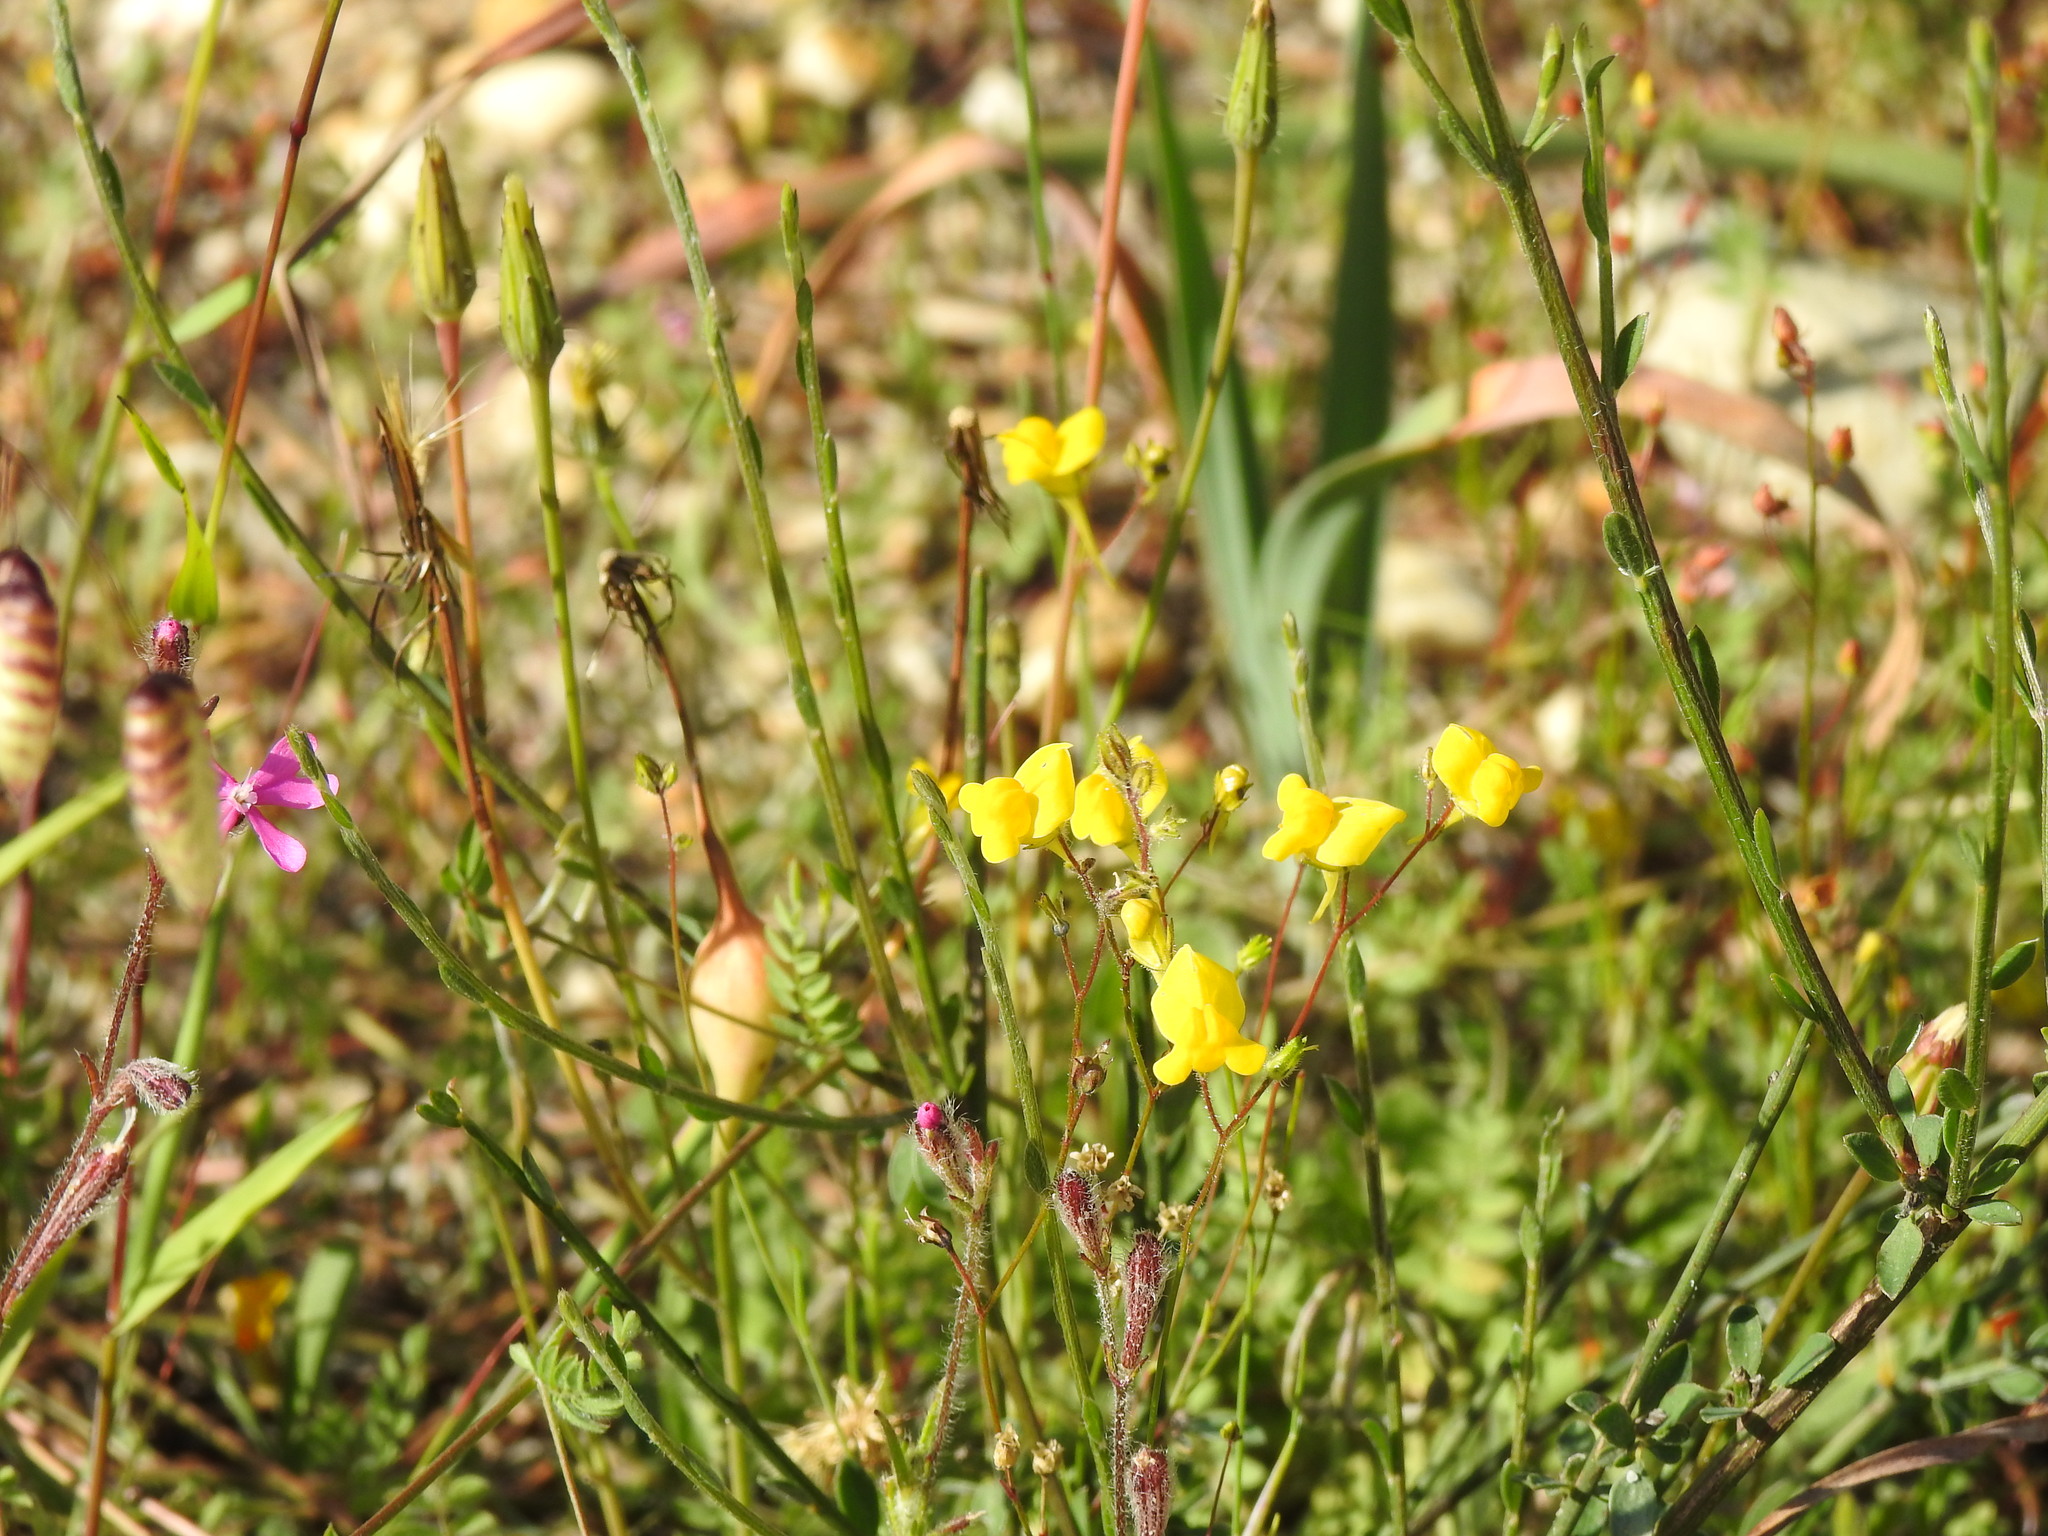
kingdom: Plantae
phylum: Tracheophyta
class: Magnoliopsida
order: Lamiales
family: Plantaginaceae
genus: Linaria
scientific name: Linaria spartea
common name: Ballast toadflax
